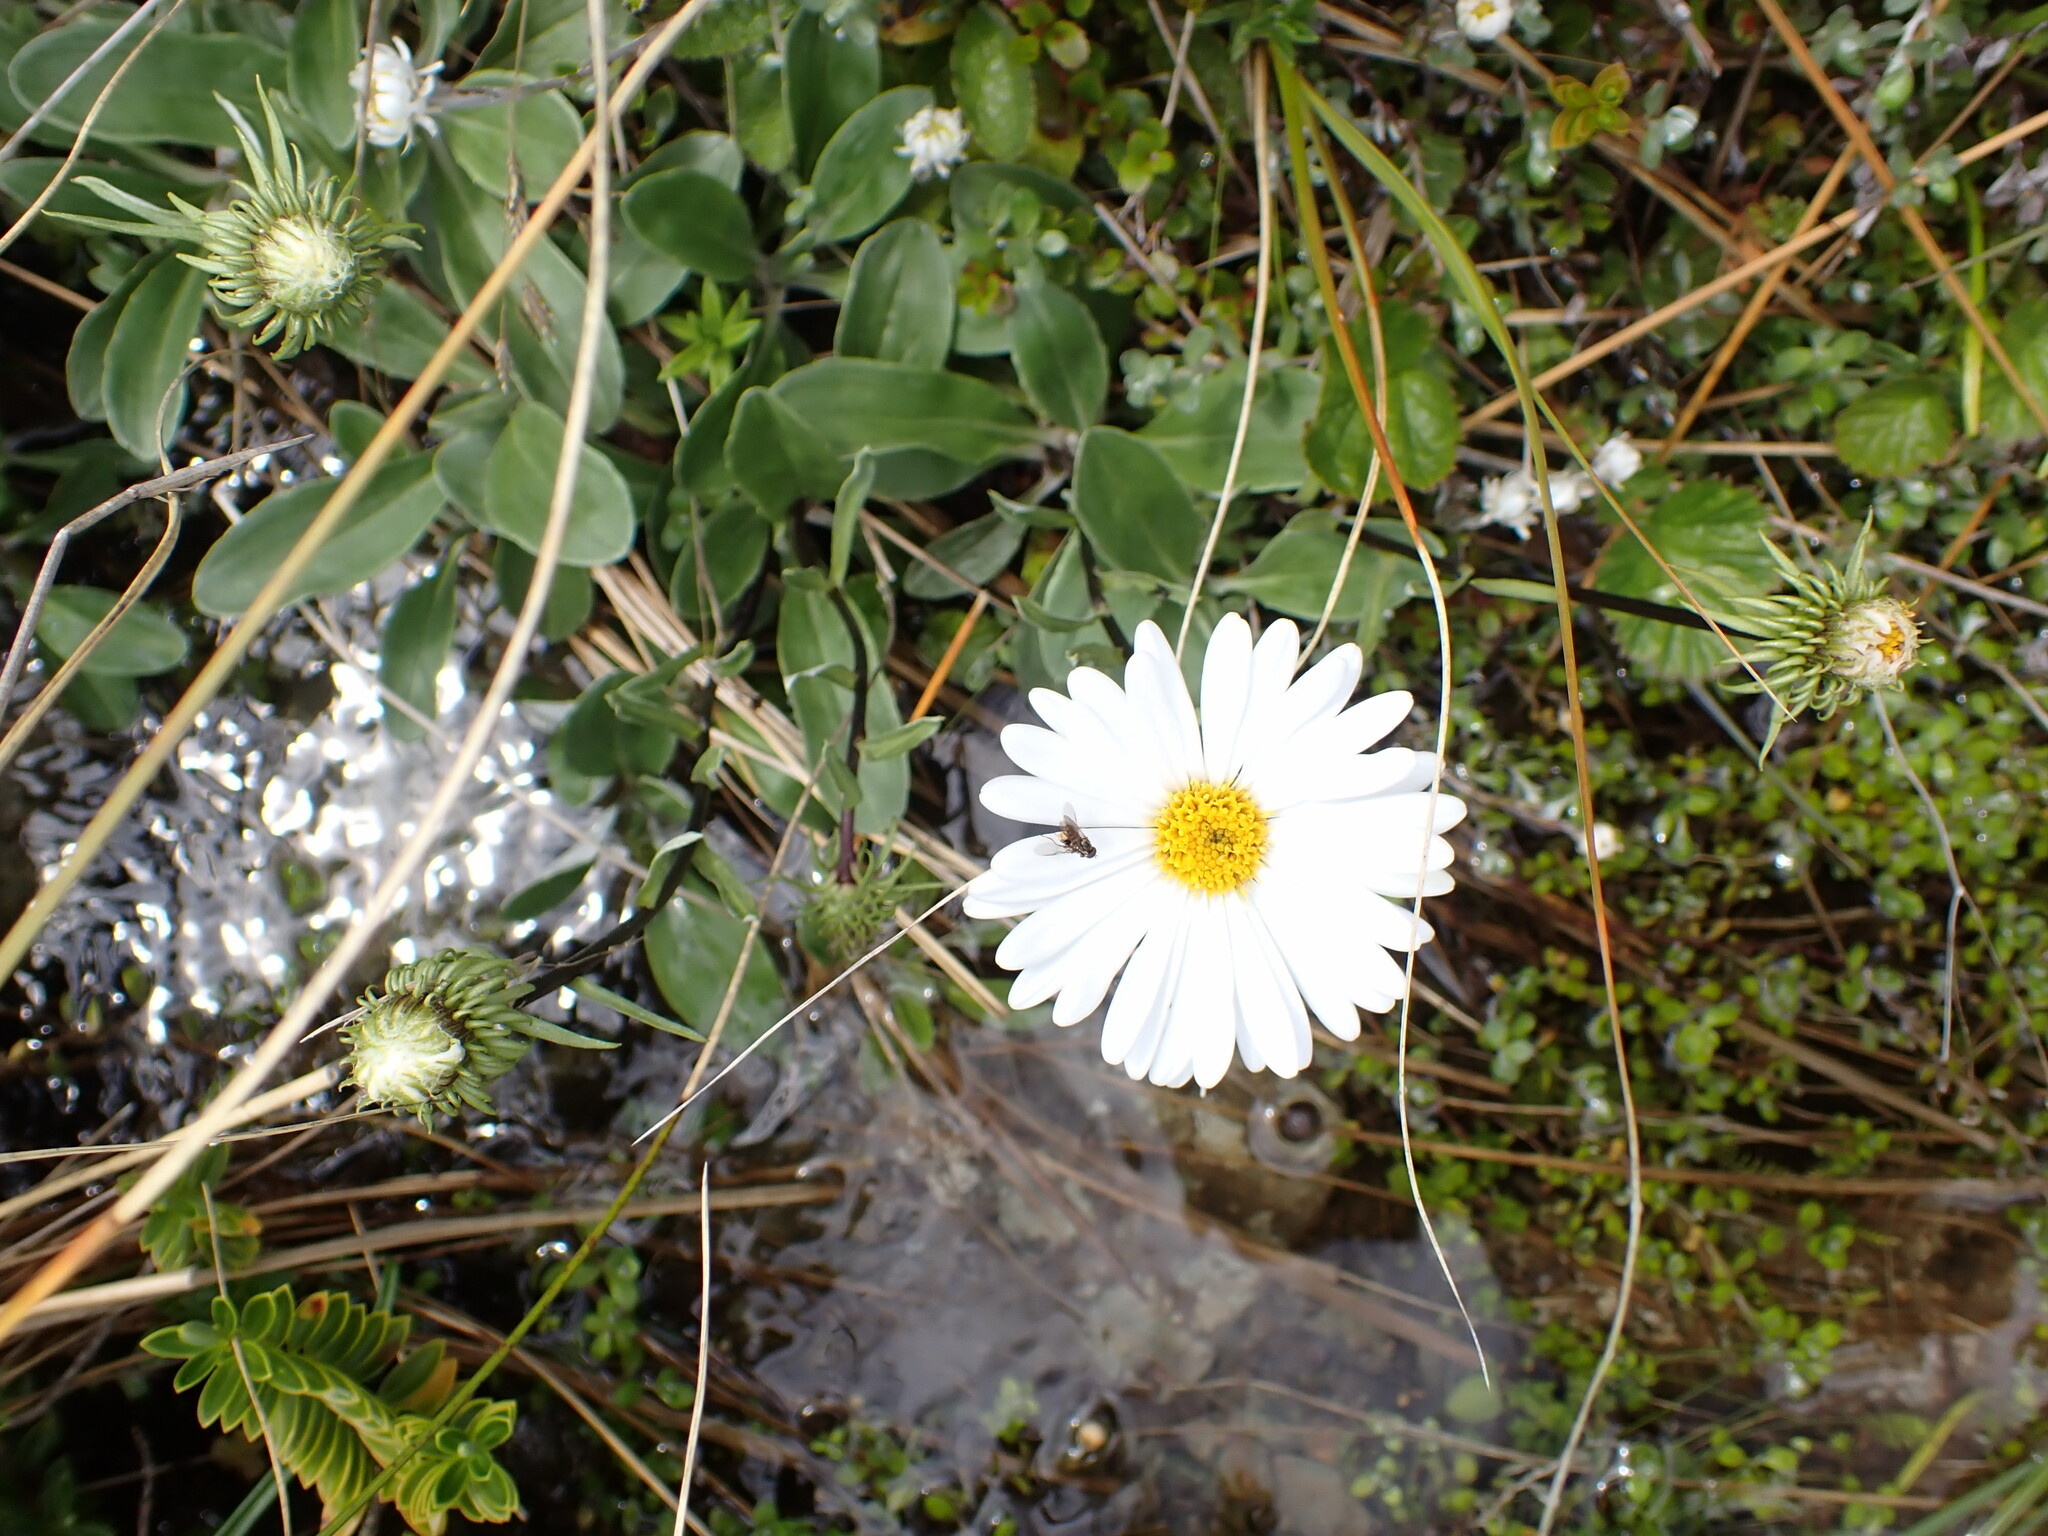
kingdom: Plantae
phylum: Tracheophyta
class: Magnoliopsida
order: Asterales
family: Asteraceae
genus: Celmisia
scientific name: Celmisia durietzii
